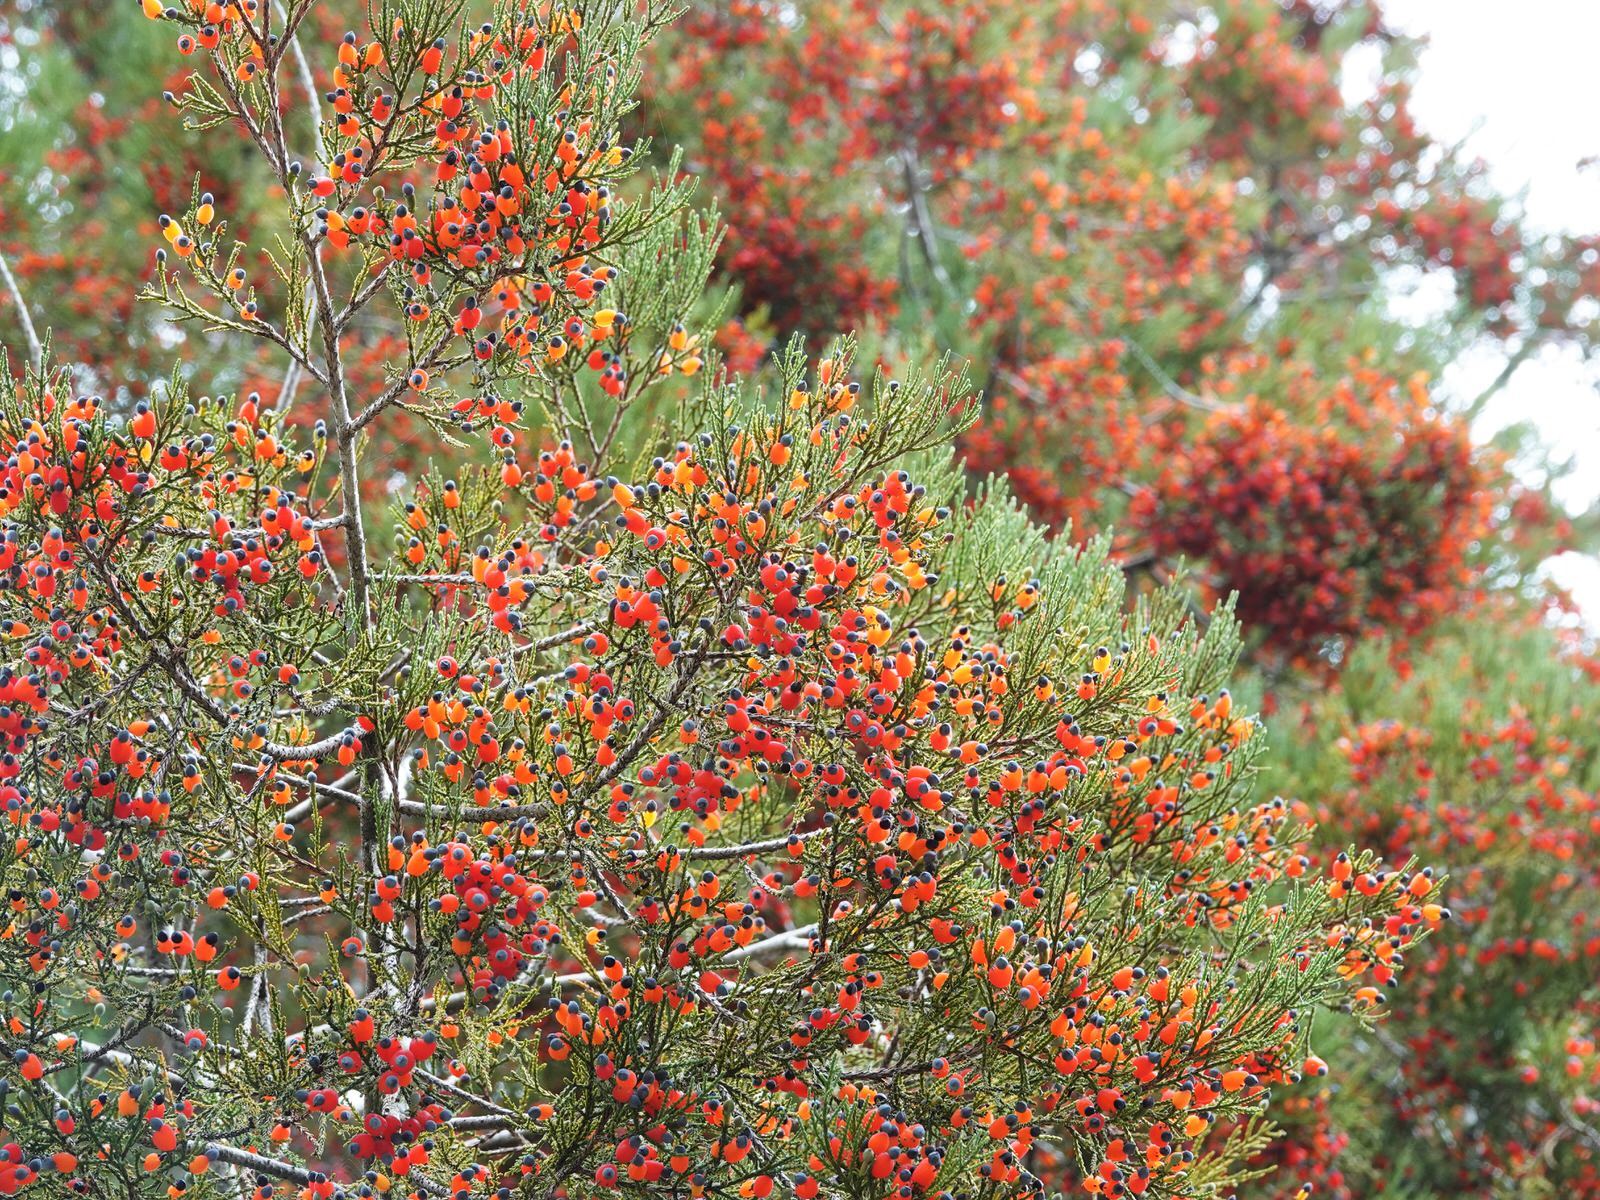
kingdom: Plantae
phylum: Tracheophyta
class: Pinopsida
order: Pinales
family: Podocarpaceae
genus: Dacrycarpus
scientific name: Dacrycarpus dacrydioides
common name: White pine
